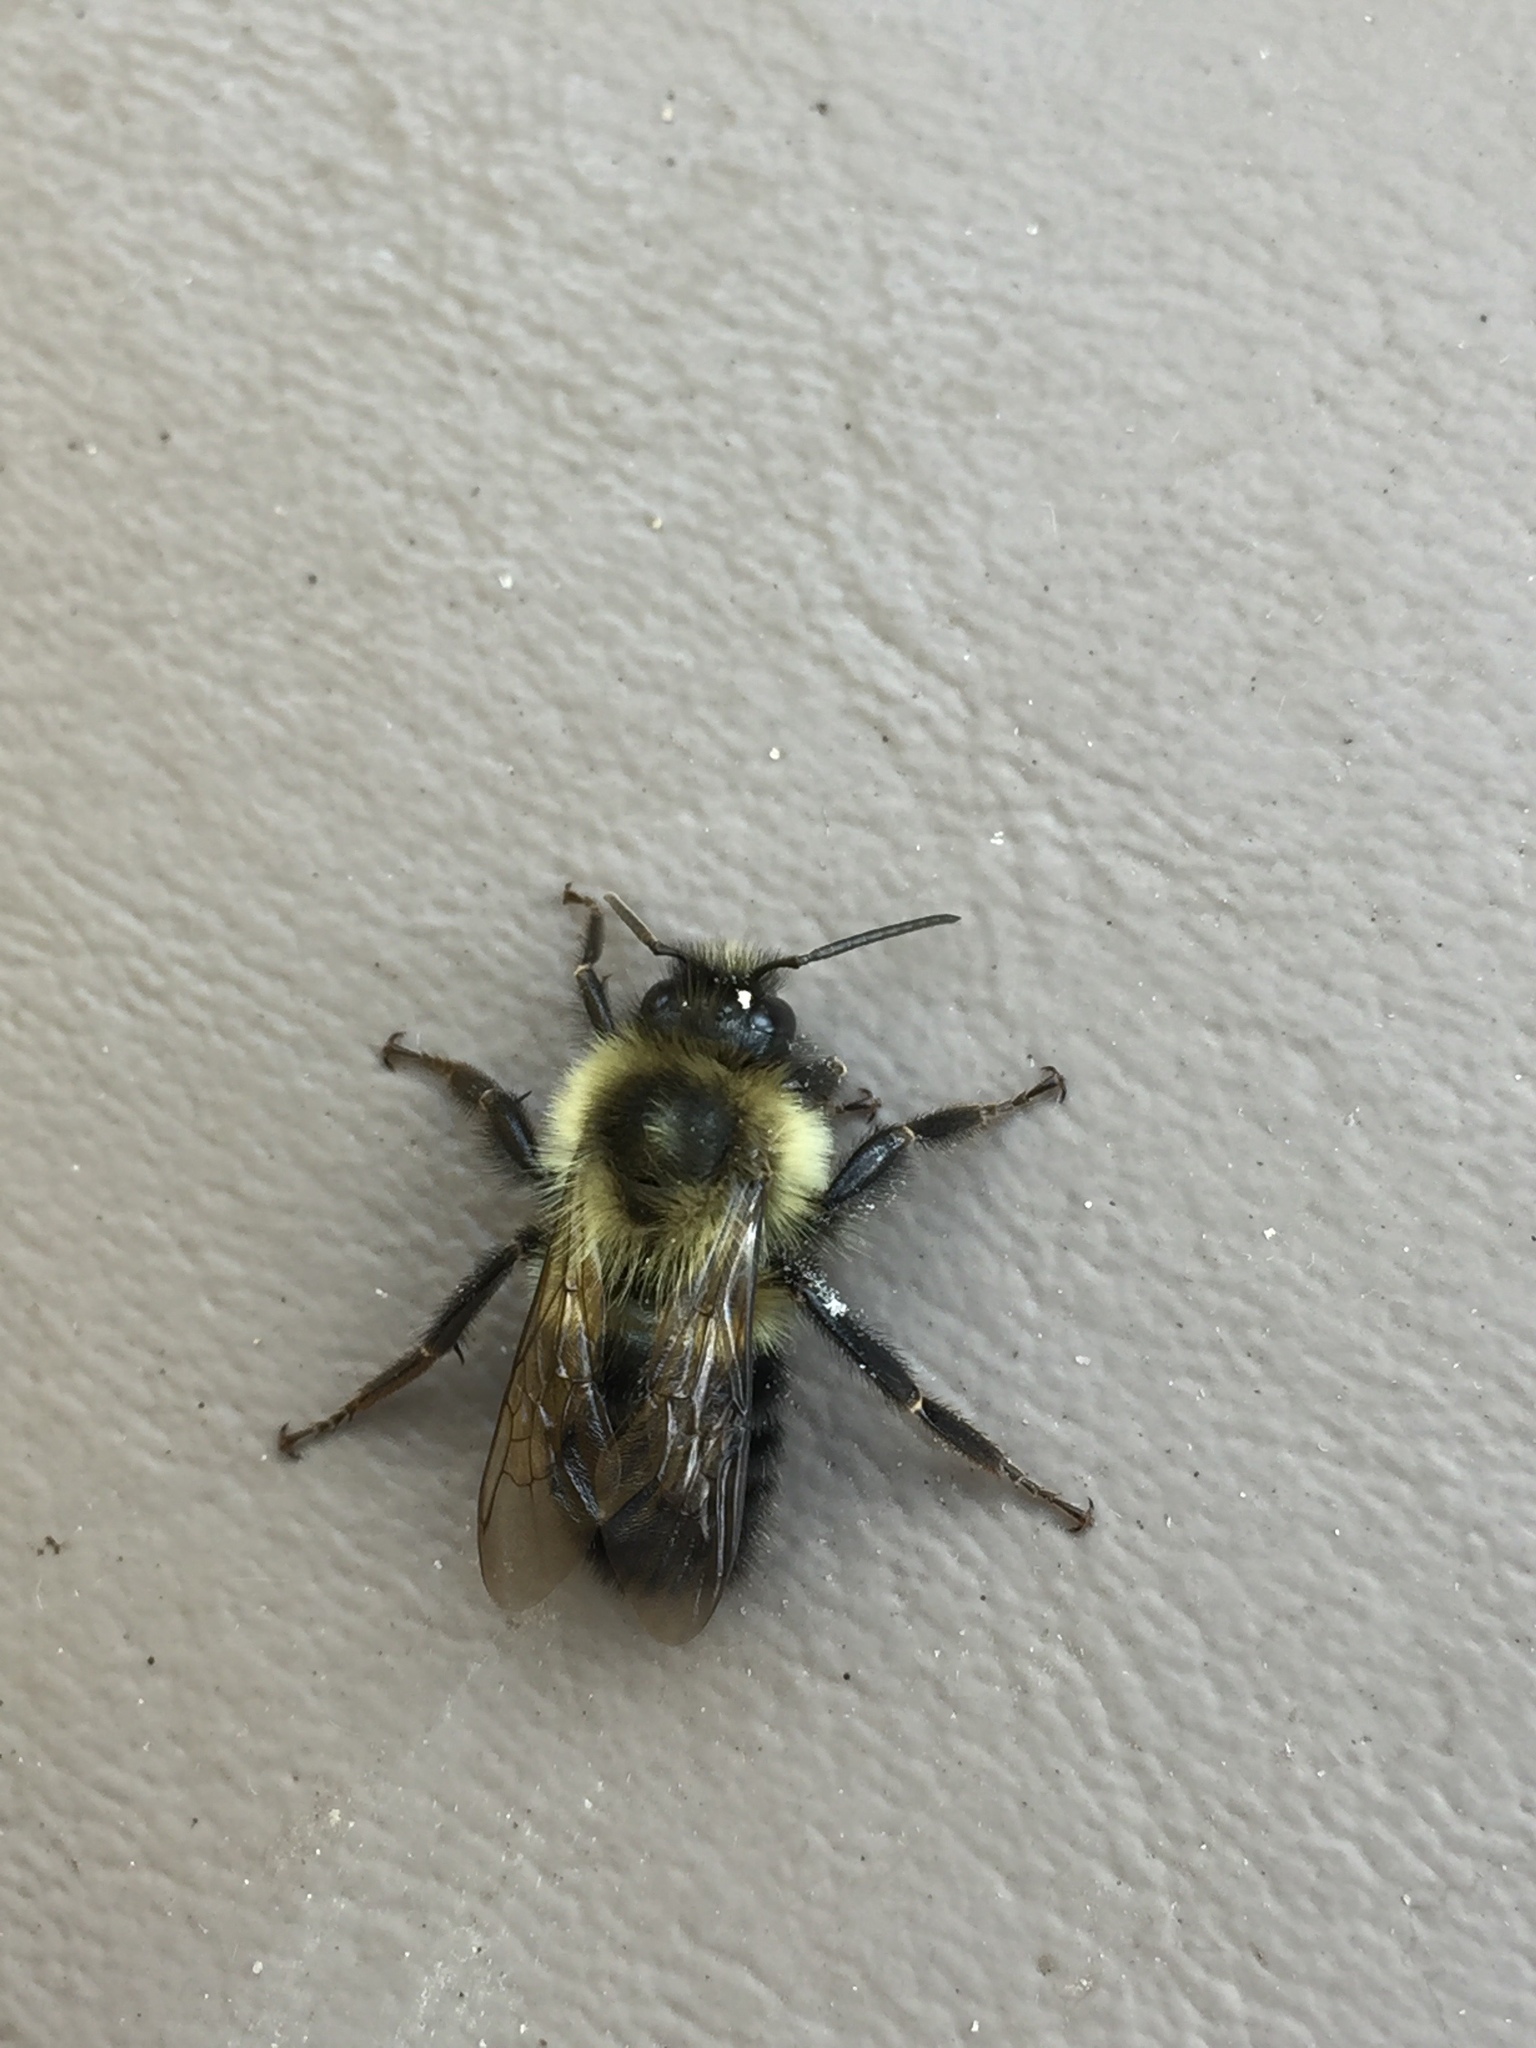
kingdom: Animalia
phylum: Arthropoda
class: Insecta
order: Hymenoptera
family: Apidae
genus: Bombus
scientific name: Bombus impatiens
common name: Common eastern bumble bee
